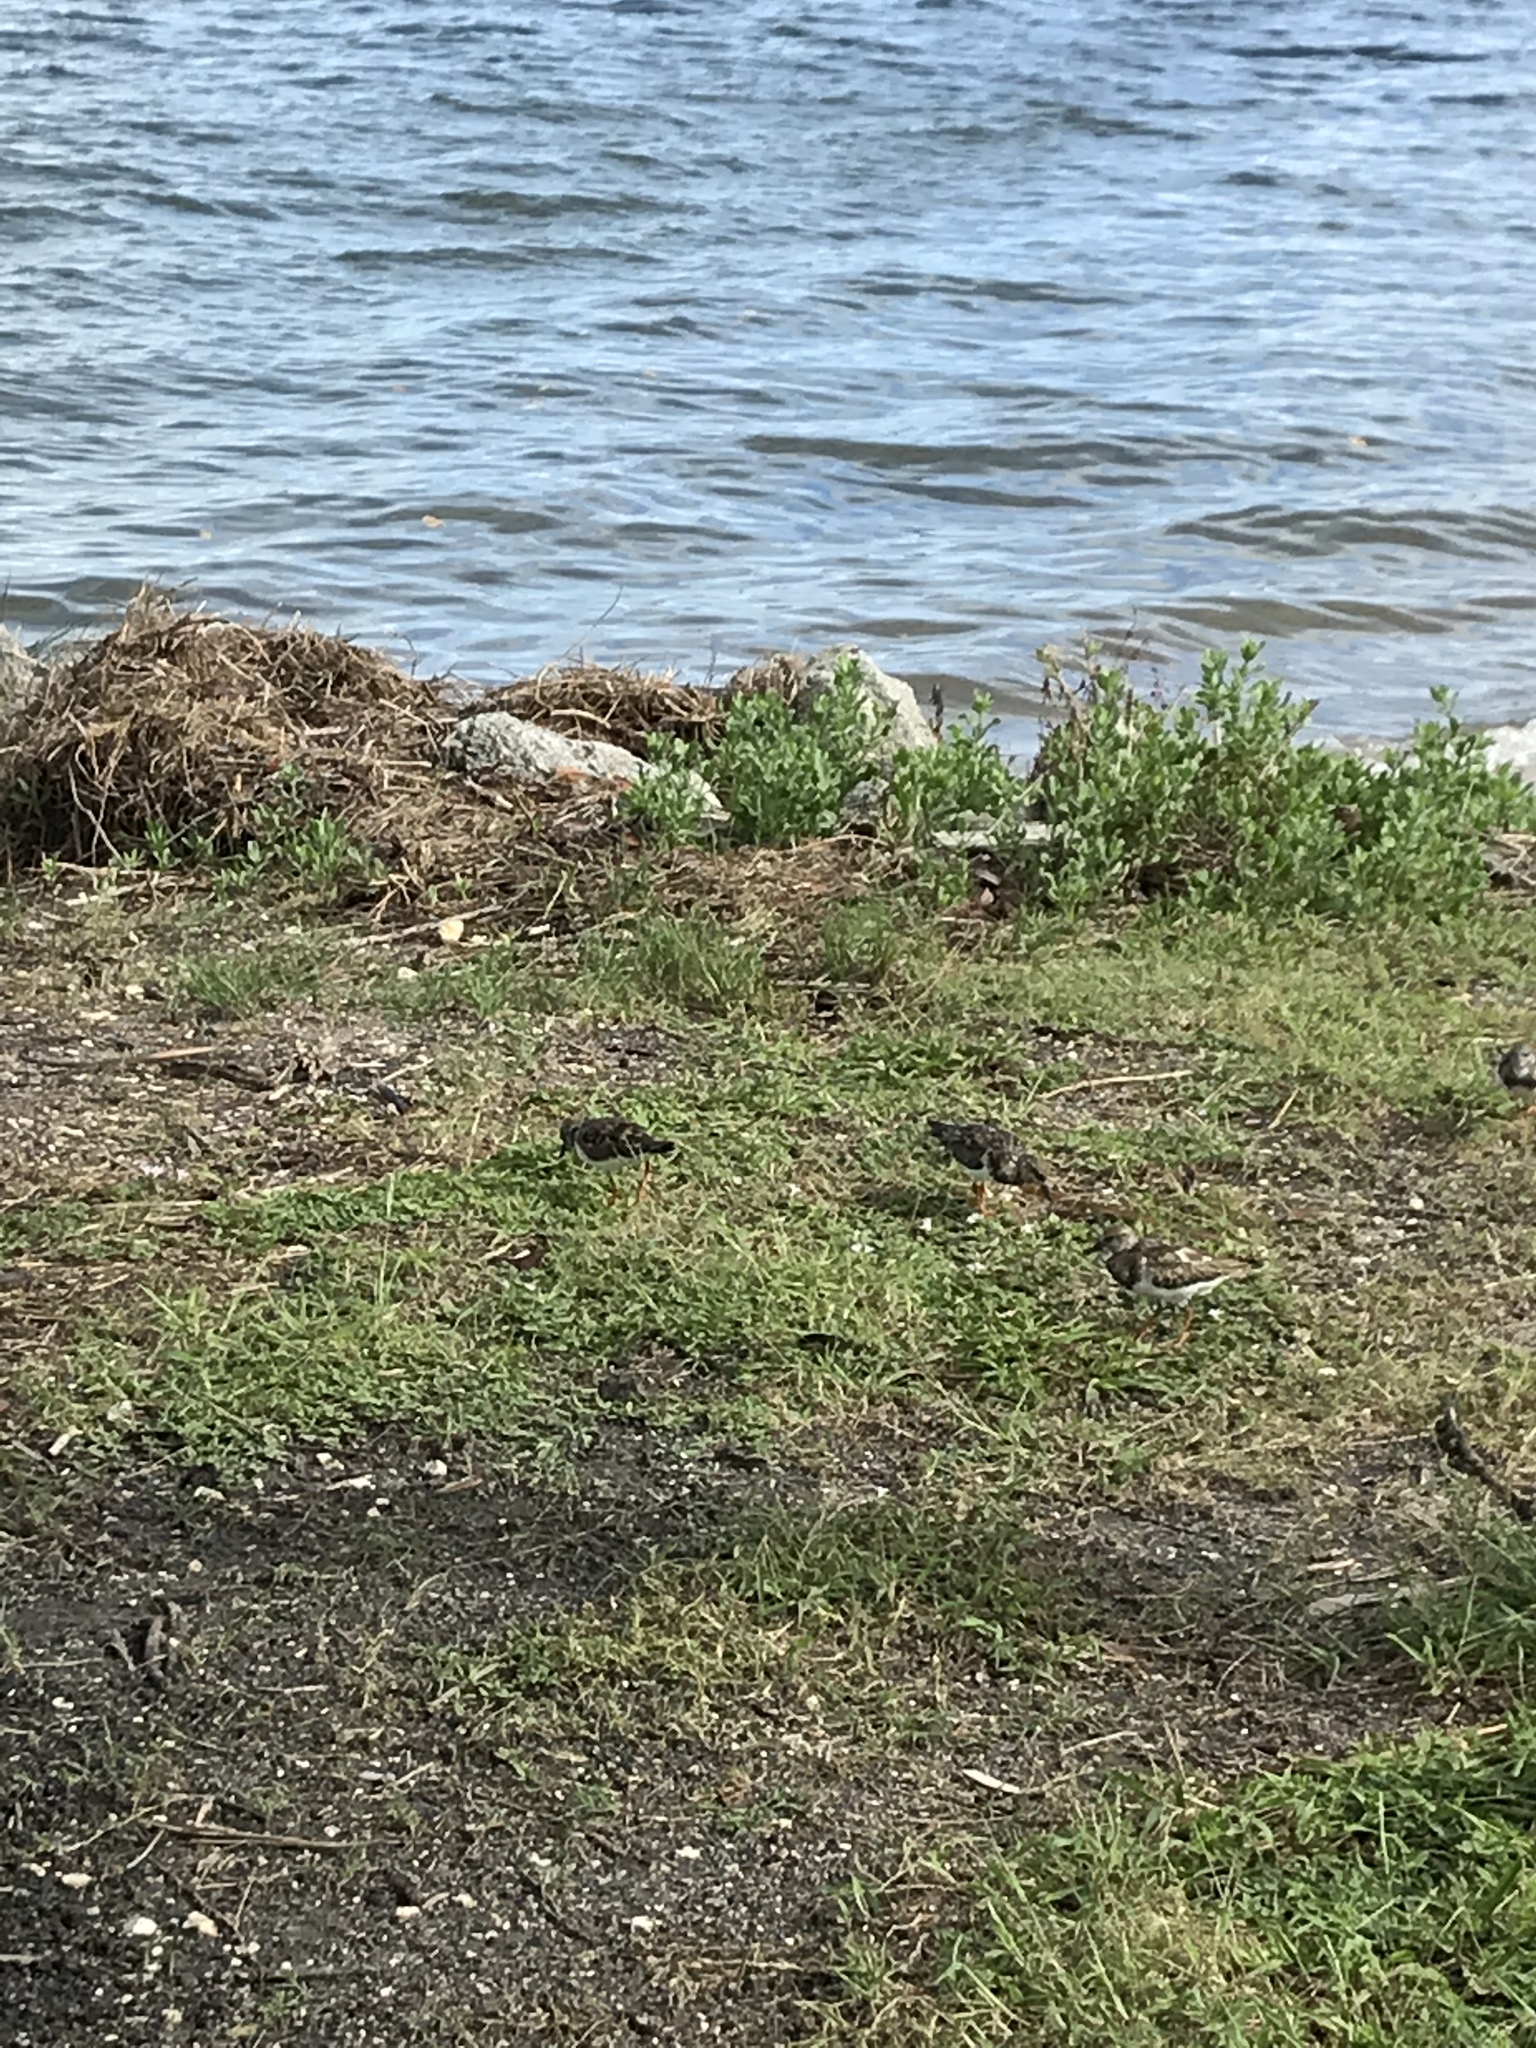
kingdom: Animalia
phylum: Chordata
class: Aves
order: Charadriiformes
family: Scolopacidae
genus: Arenaria
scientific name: Arenaria interpres
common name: Ruddy turnstone
